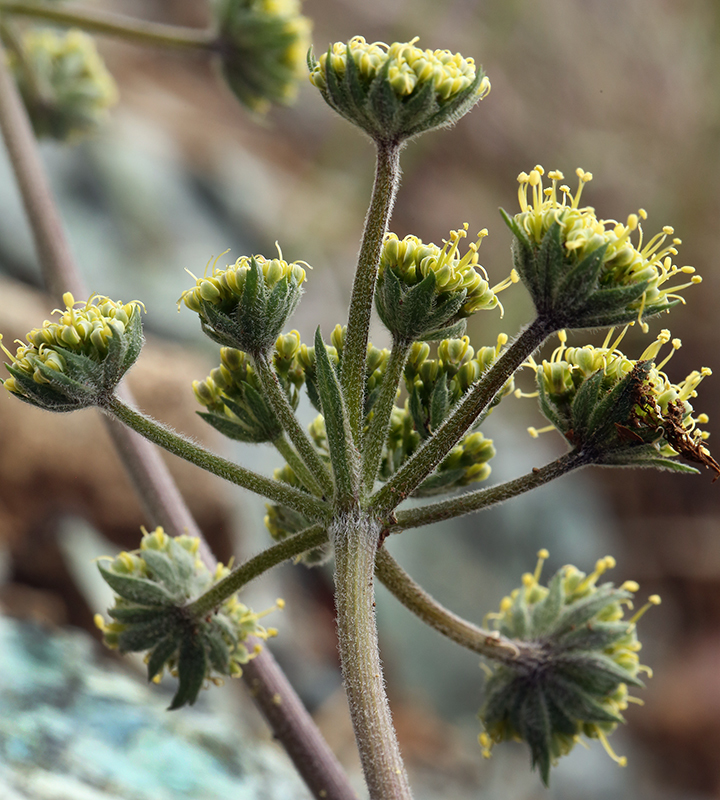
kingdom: Plantae
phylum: Tracheophyta
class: Magnoliopsida
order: Apiales
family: Apiaceae
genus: Lomatium
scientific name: Lomatium macrocarpum
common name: Big-seed biscuitroot
